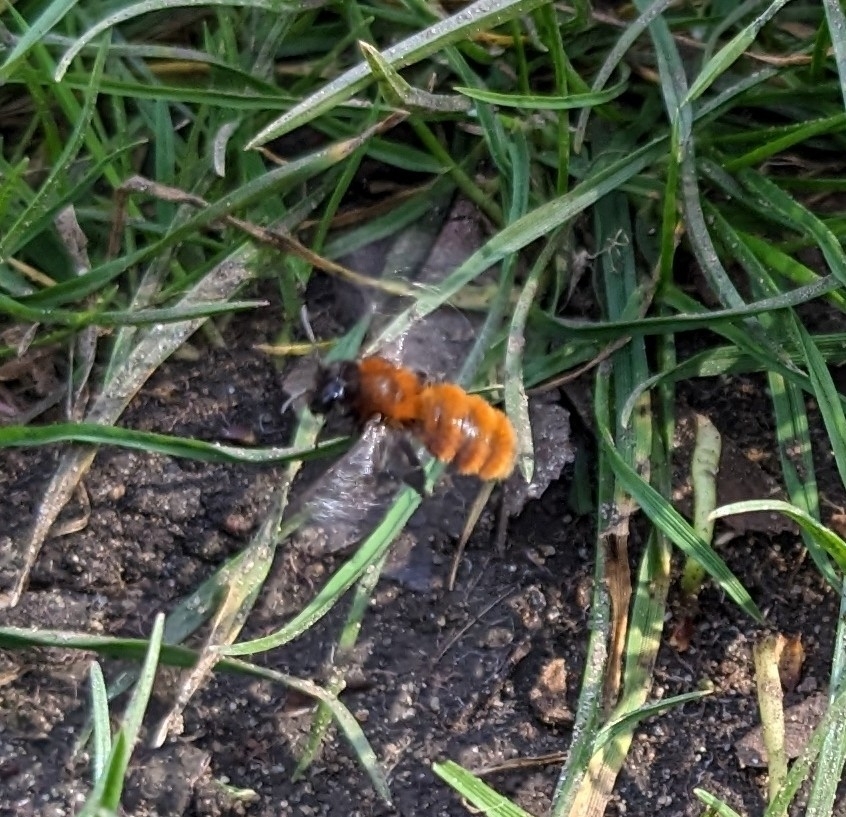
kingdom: Animalia
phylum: Arthropoda
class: Insecta
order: Hymenoptera
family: Andrenidae
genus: Andrena
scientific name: Andrena fulva
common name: Tawny mining bee
